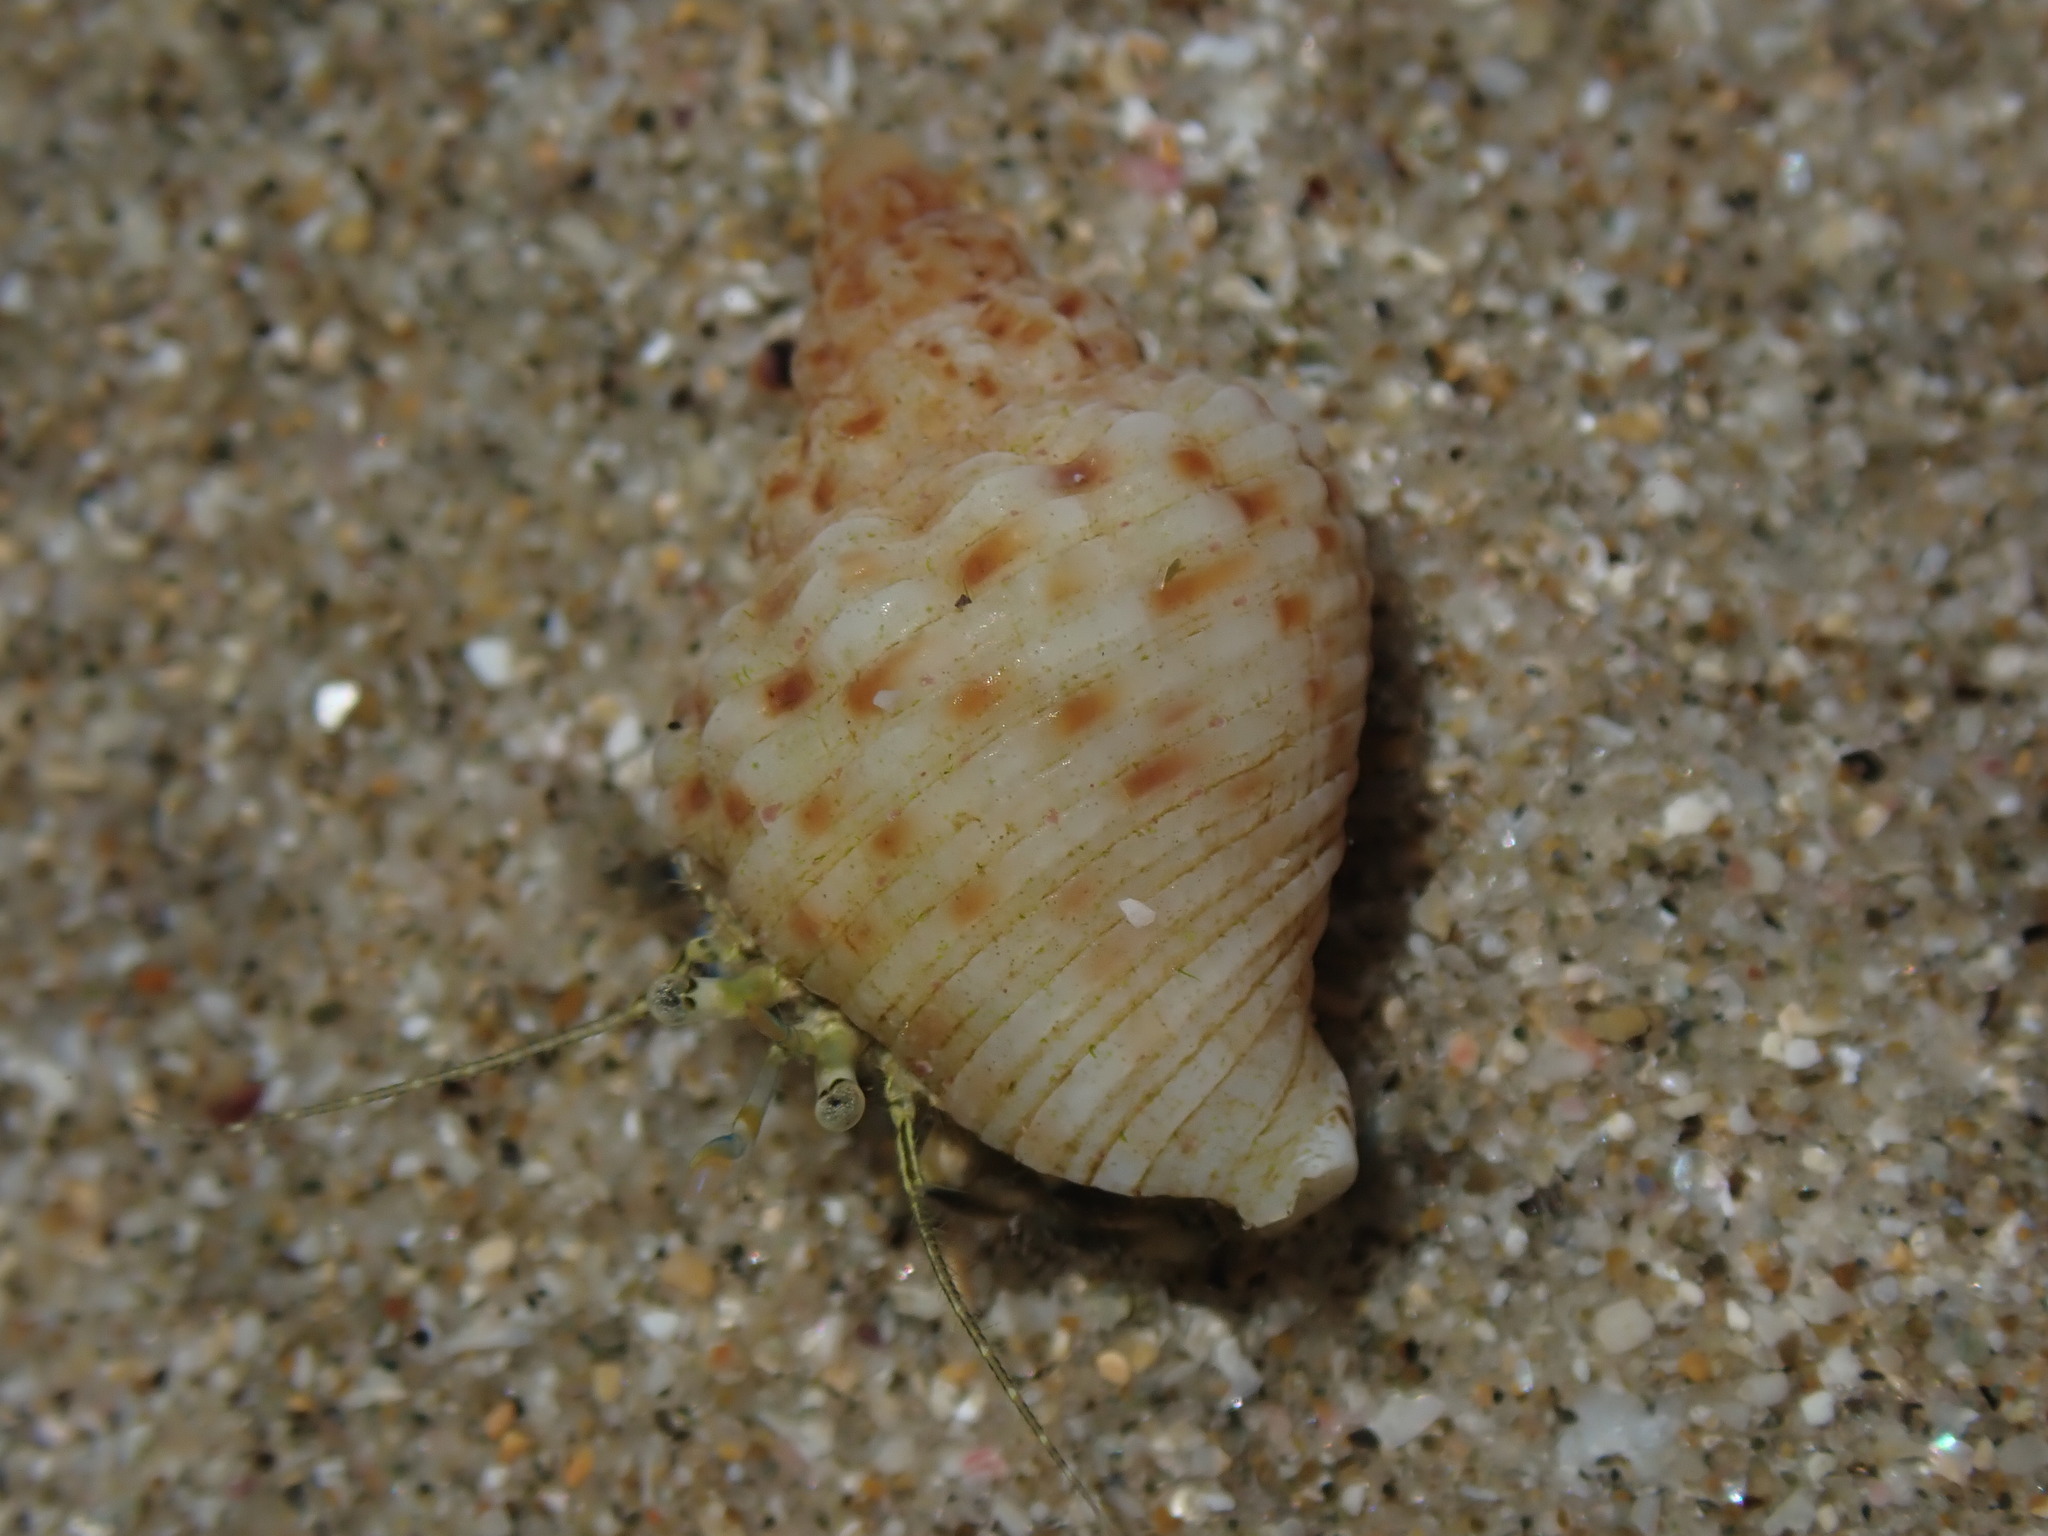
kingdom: Animalia
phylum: Arthropoda
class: Malacostraca
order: Decapoda
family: Paguridae
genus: Pagurus
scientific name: Pagurus novizealandiae
